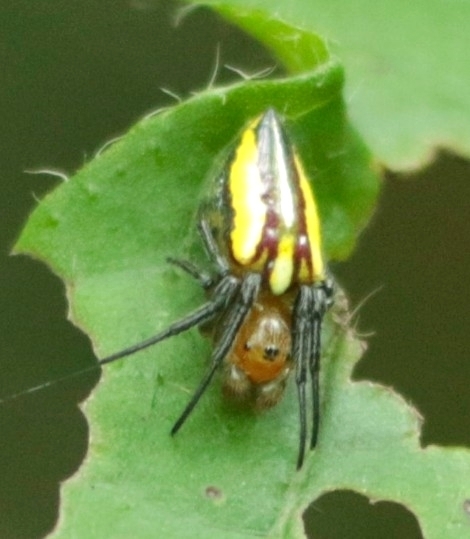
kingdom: Animalia
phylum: Arthropoda
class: Arachnida
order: Araneae
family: Araneidae
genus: Alpaida
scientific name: Alpaida bicornuta
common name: Orb weavers
